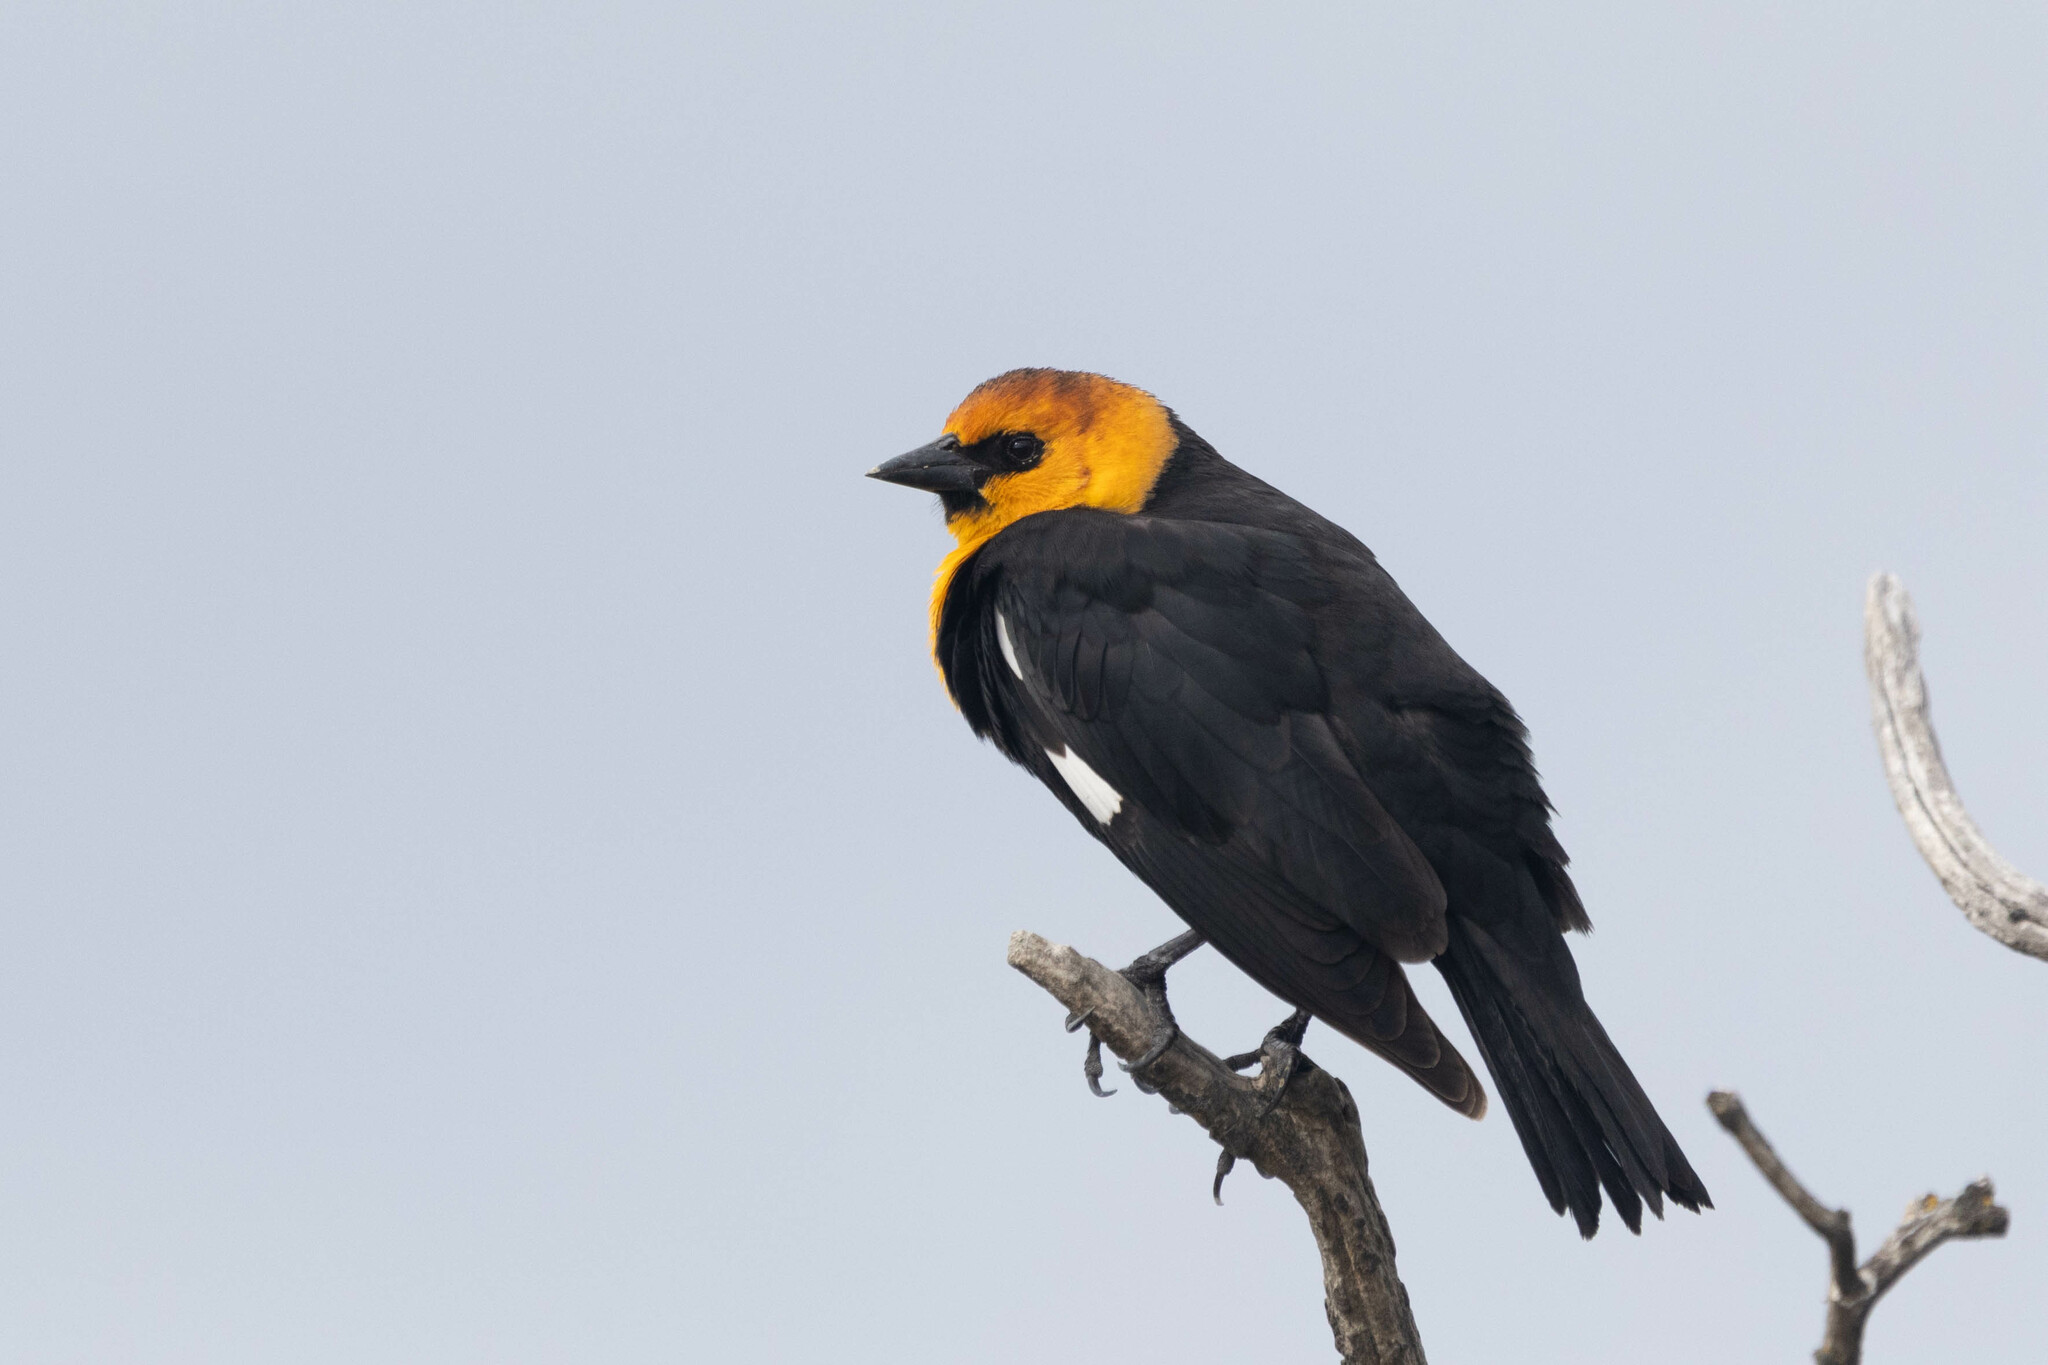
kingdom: Animalia
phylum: Chordata
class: Aves
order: Passeriformes
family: Icteridae
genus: Xanthocephalus
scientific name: Xanthocephalus xanthocephalus
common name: Yellow-headed blackbird
